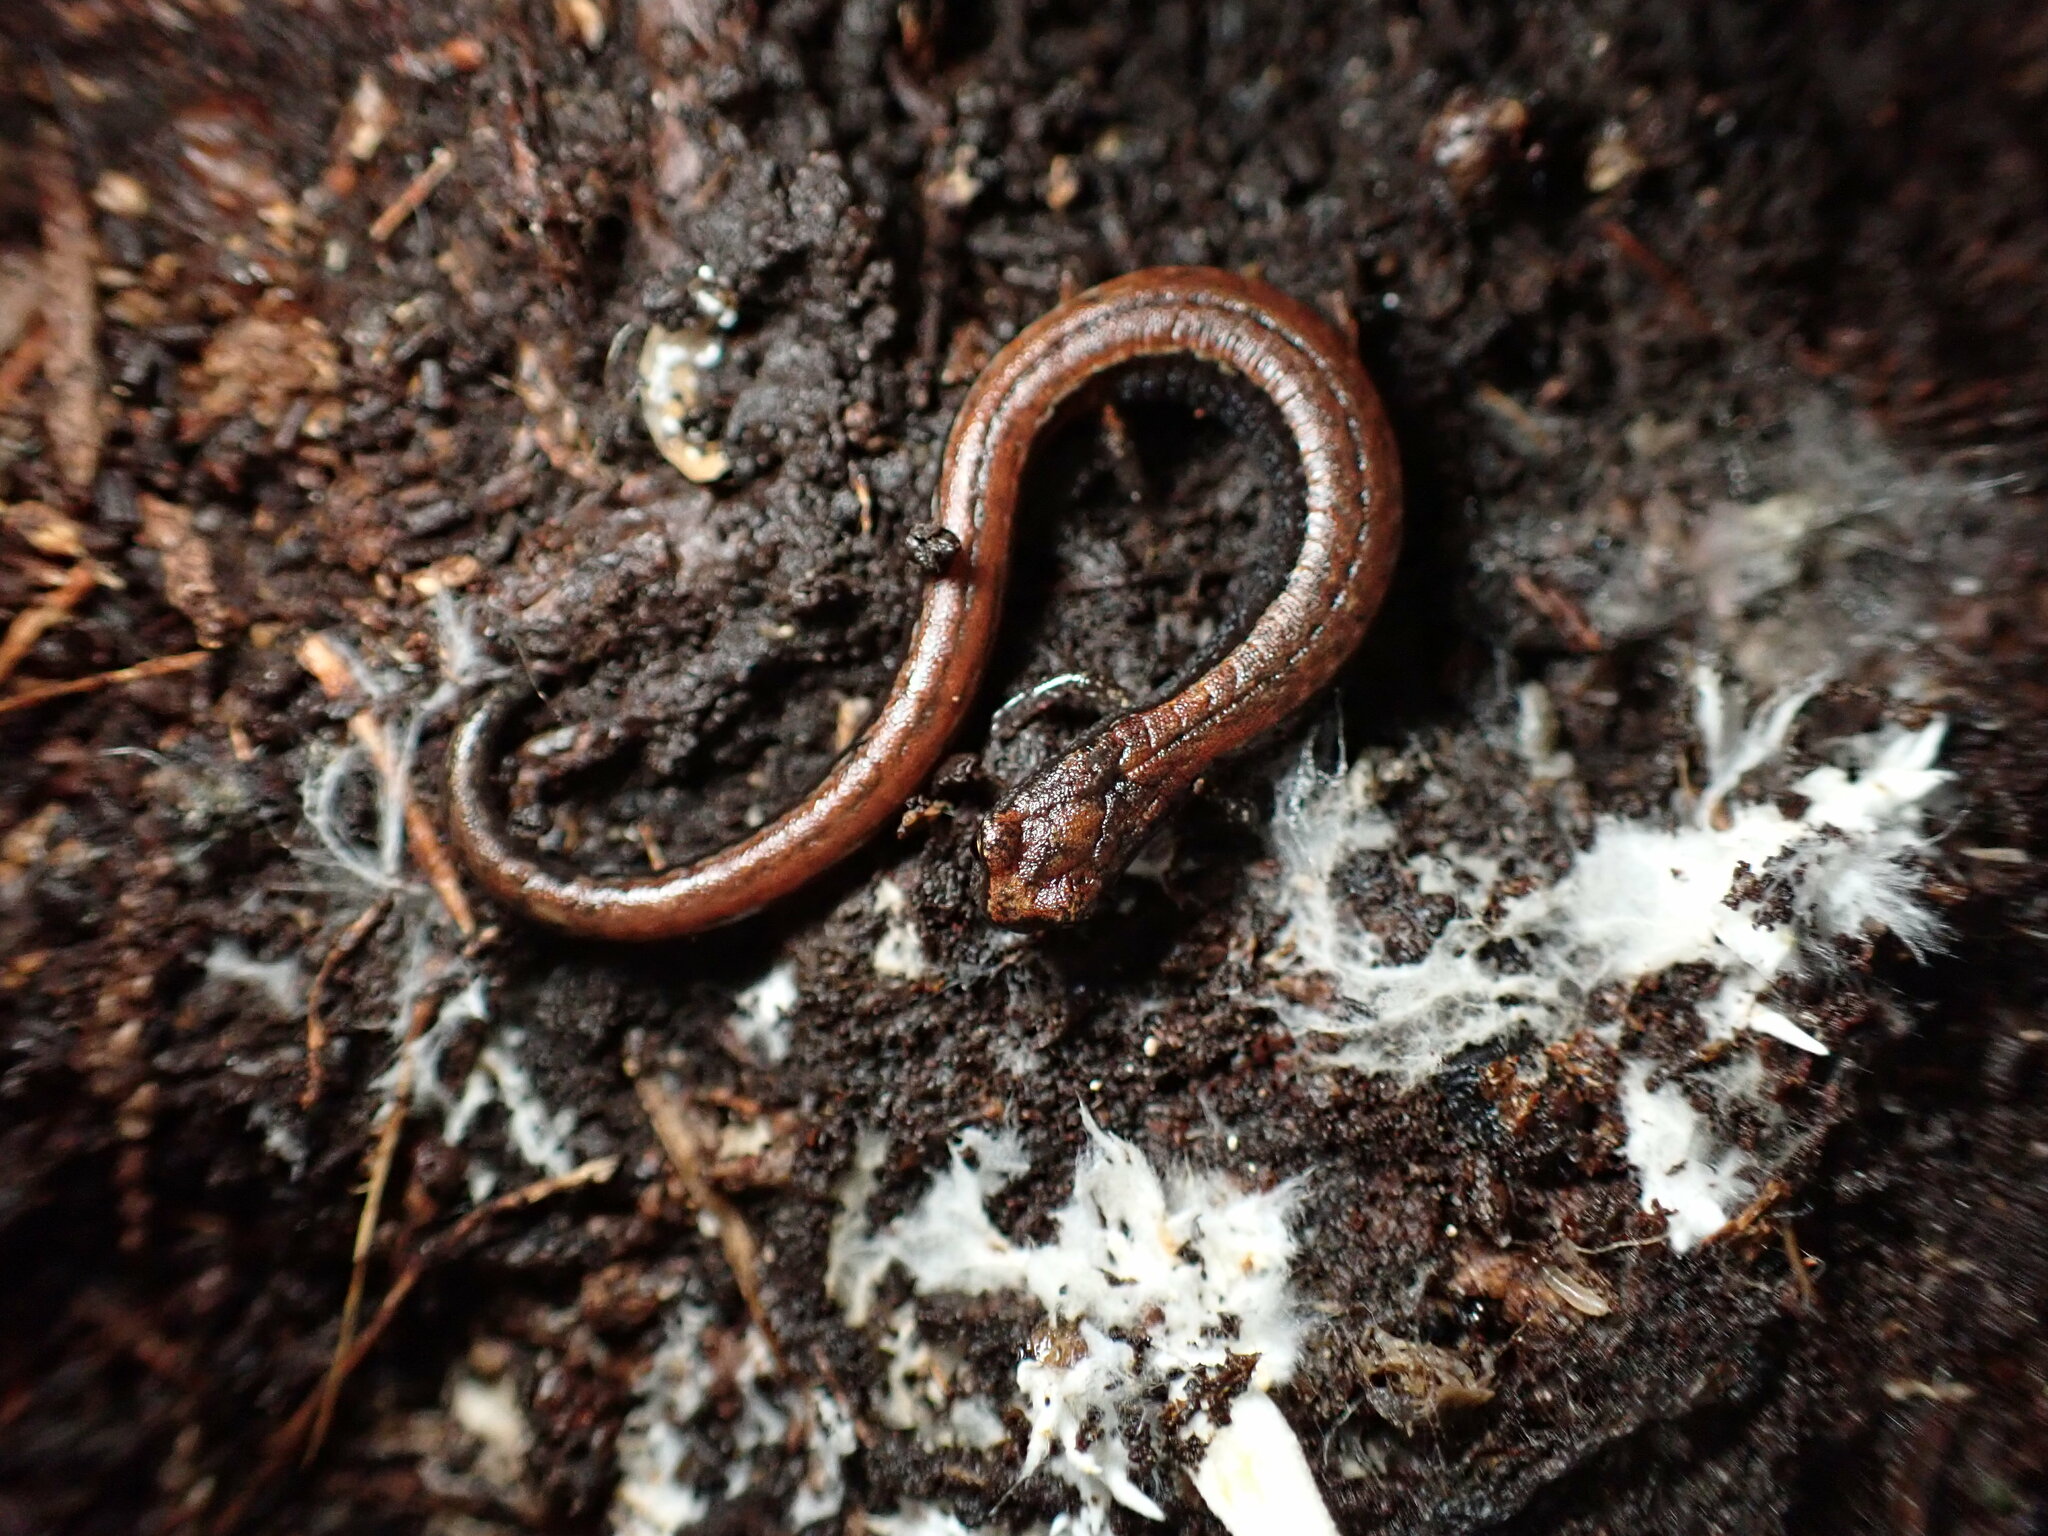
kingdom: Animalia
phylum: Chordata
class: Amphibia
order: Caudata
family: Plethodontidae
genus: Batrachoseps
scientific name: Batrachoseps attenuatus
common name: California slender salamander
